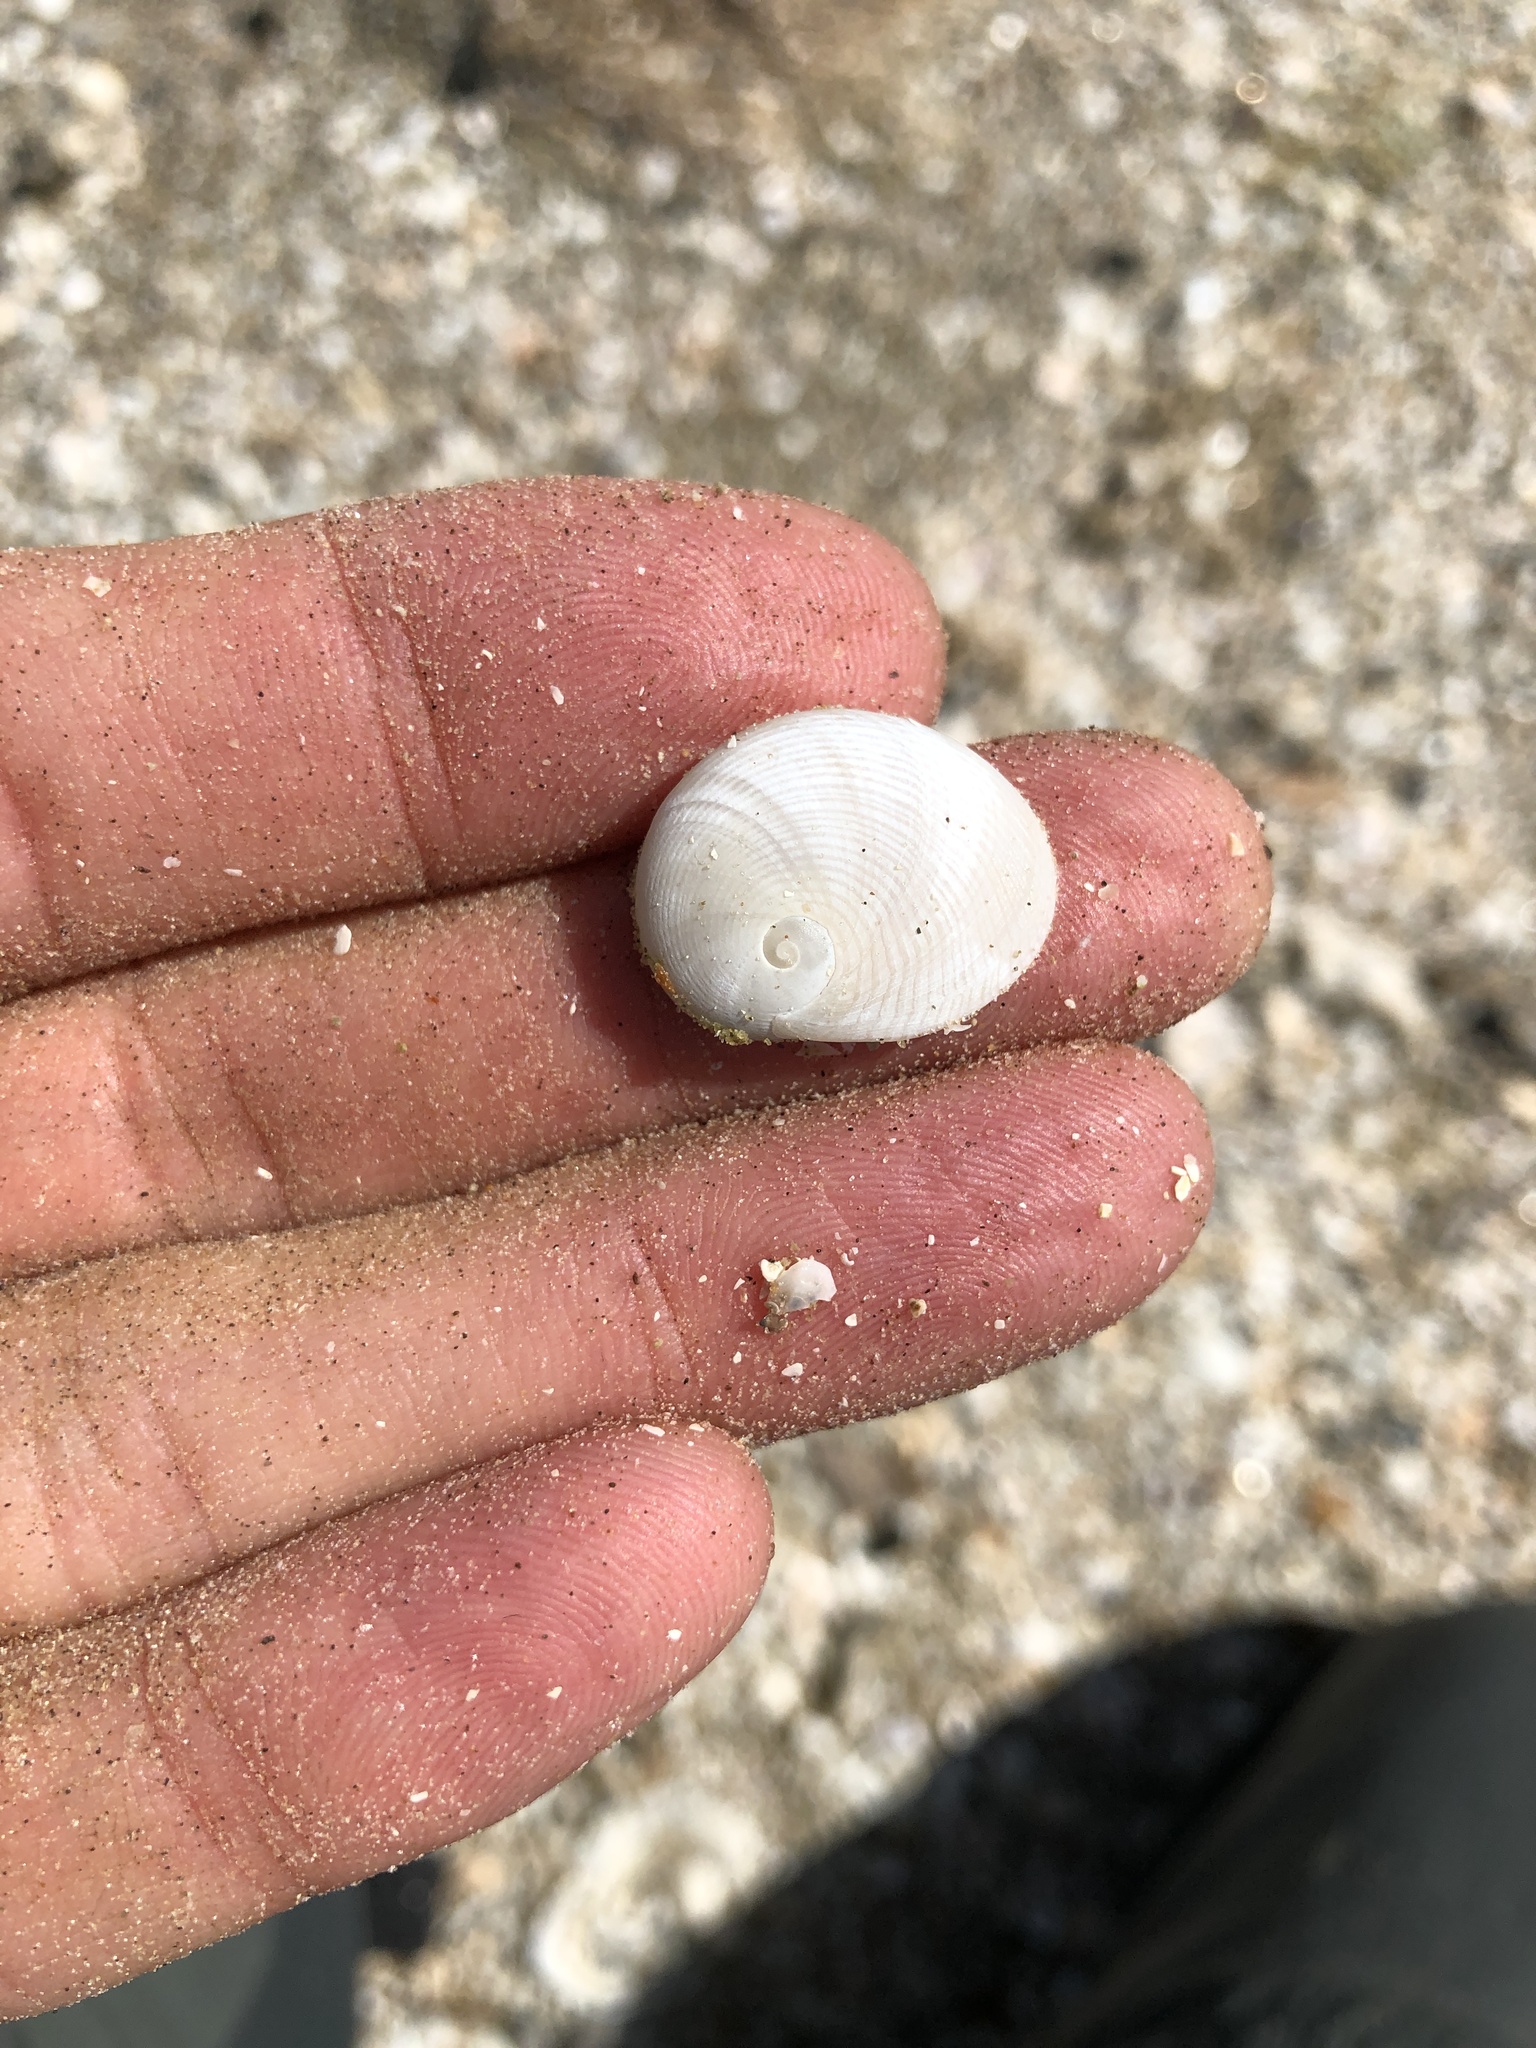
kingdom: Animalia
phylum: Mollusca
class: Gastropoda
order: Littorinimorpha
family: Naticidae
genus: Sinum
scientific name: Sinum perspectivum
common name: White baby ear
